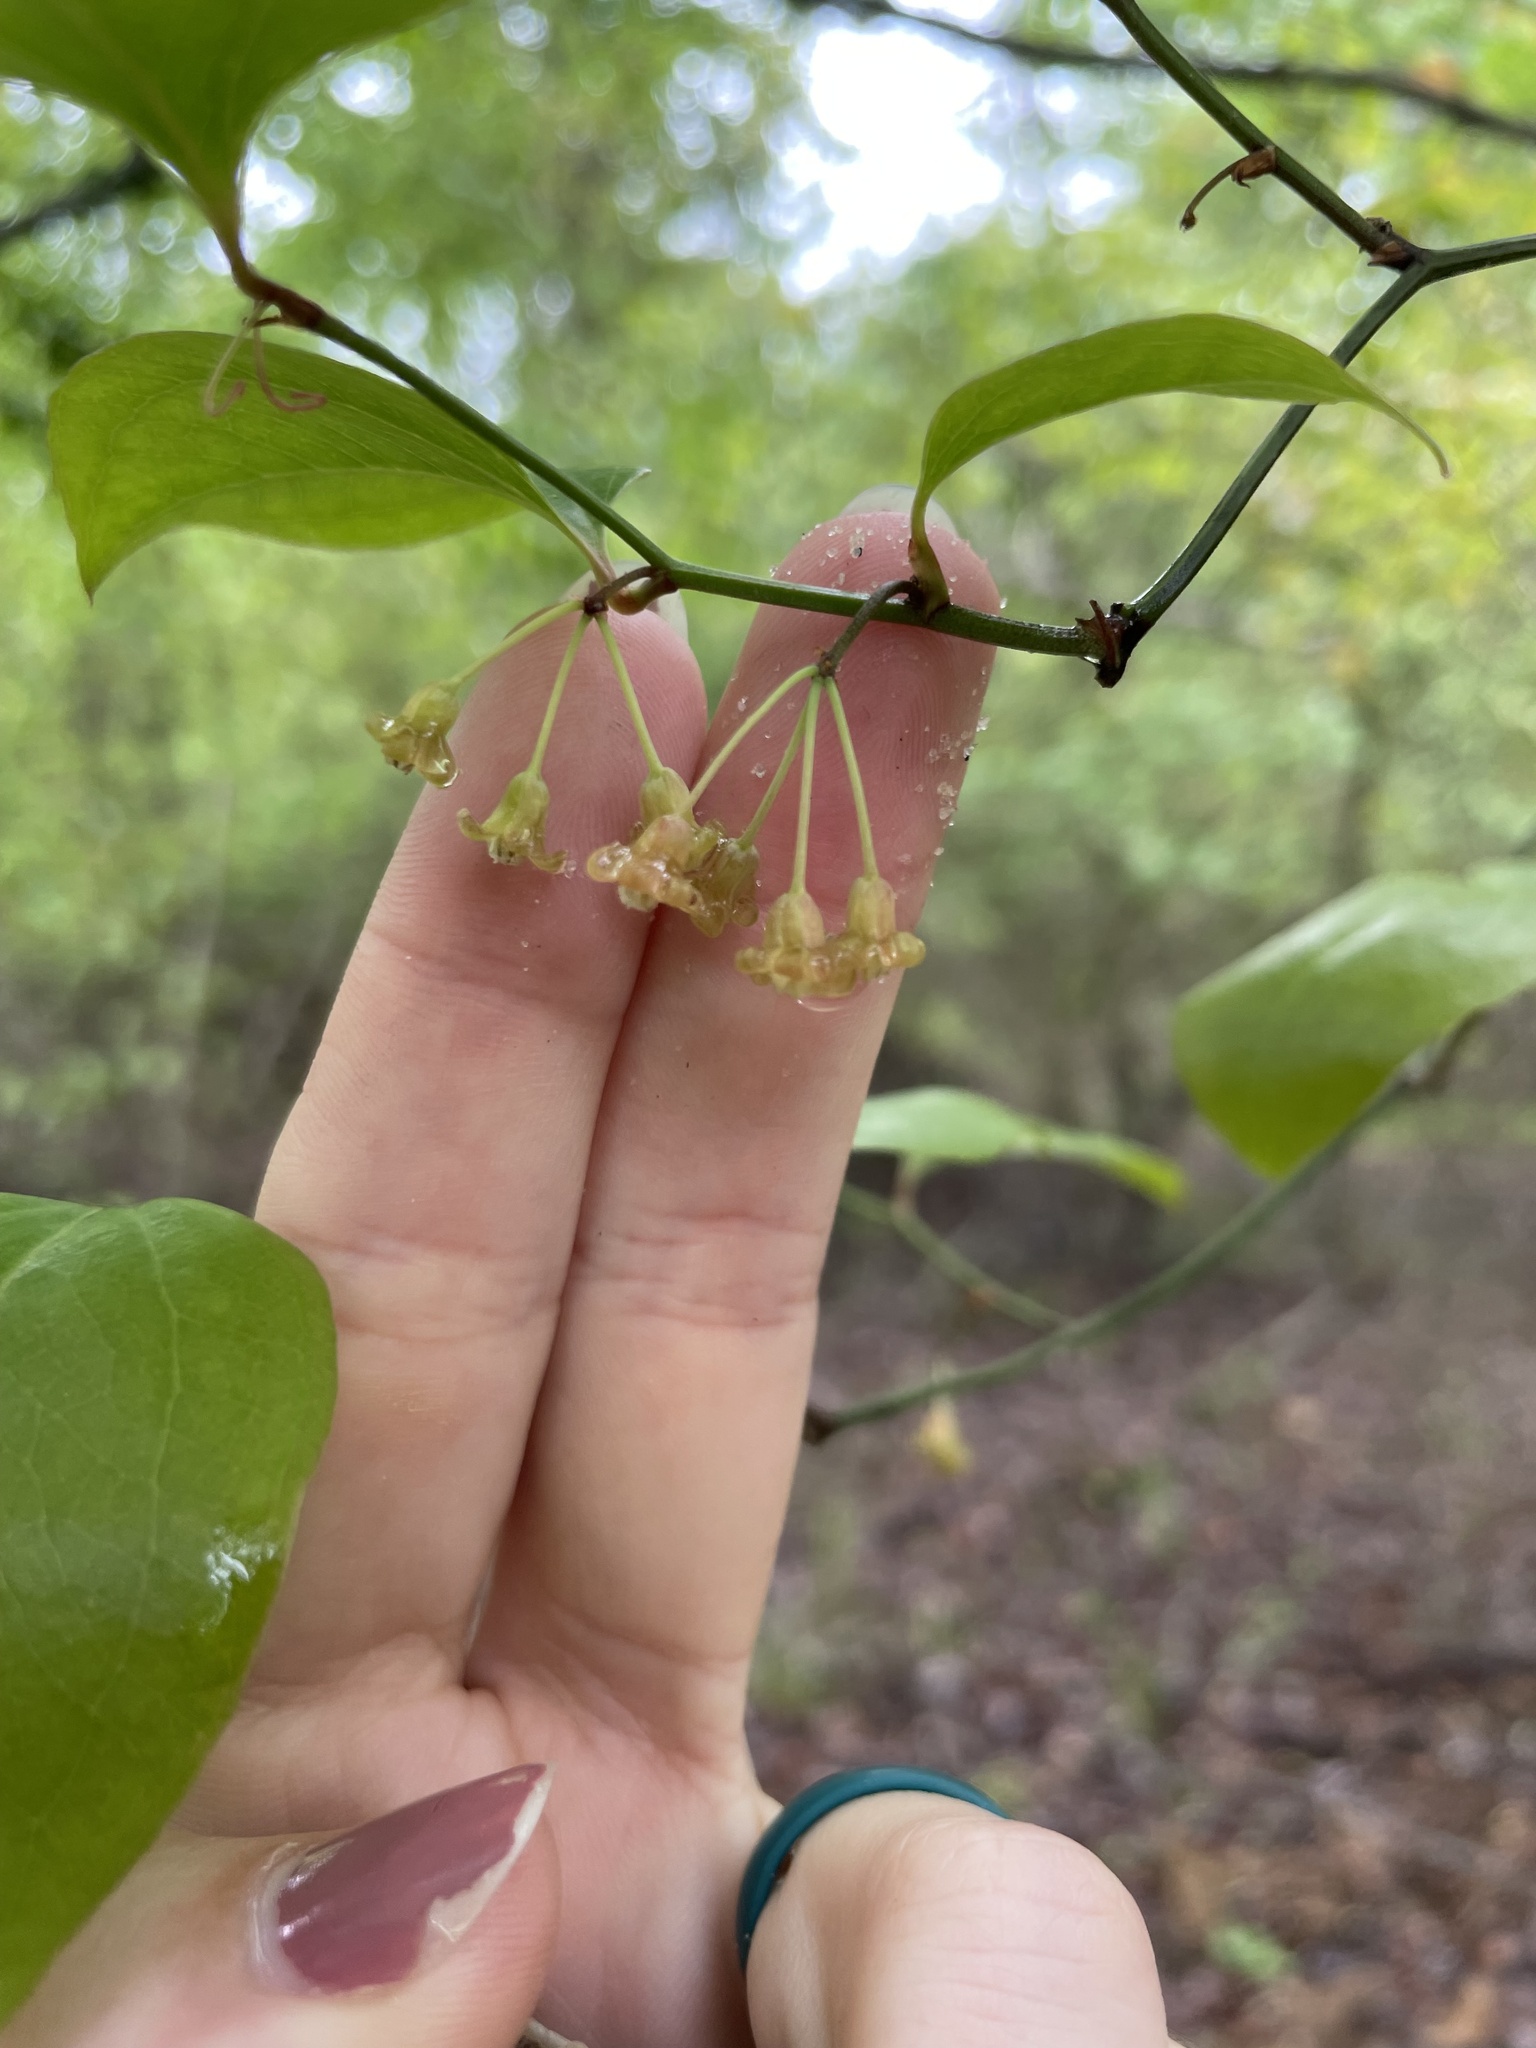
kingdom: Plantae
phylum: Tracheophyta
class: Liliopsida
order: Liliales
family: Smilacaceae
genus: Smilax
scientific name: Smilax rotundifolia
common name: Bullbriar
